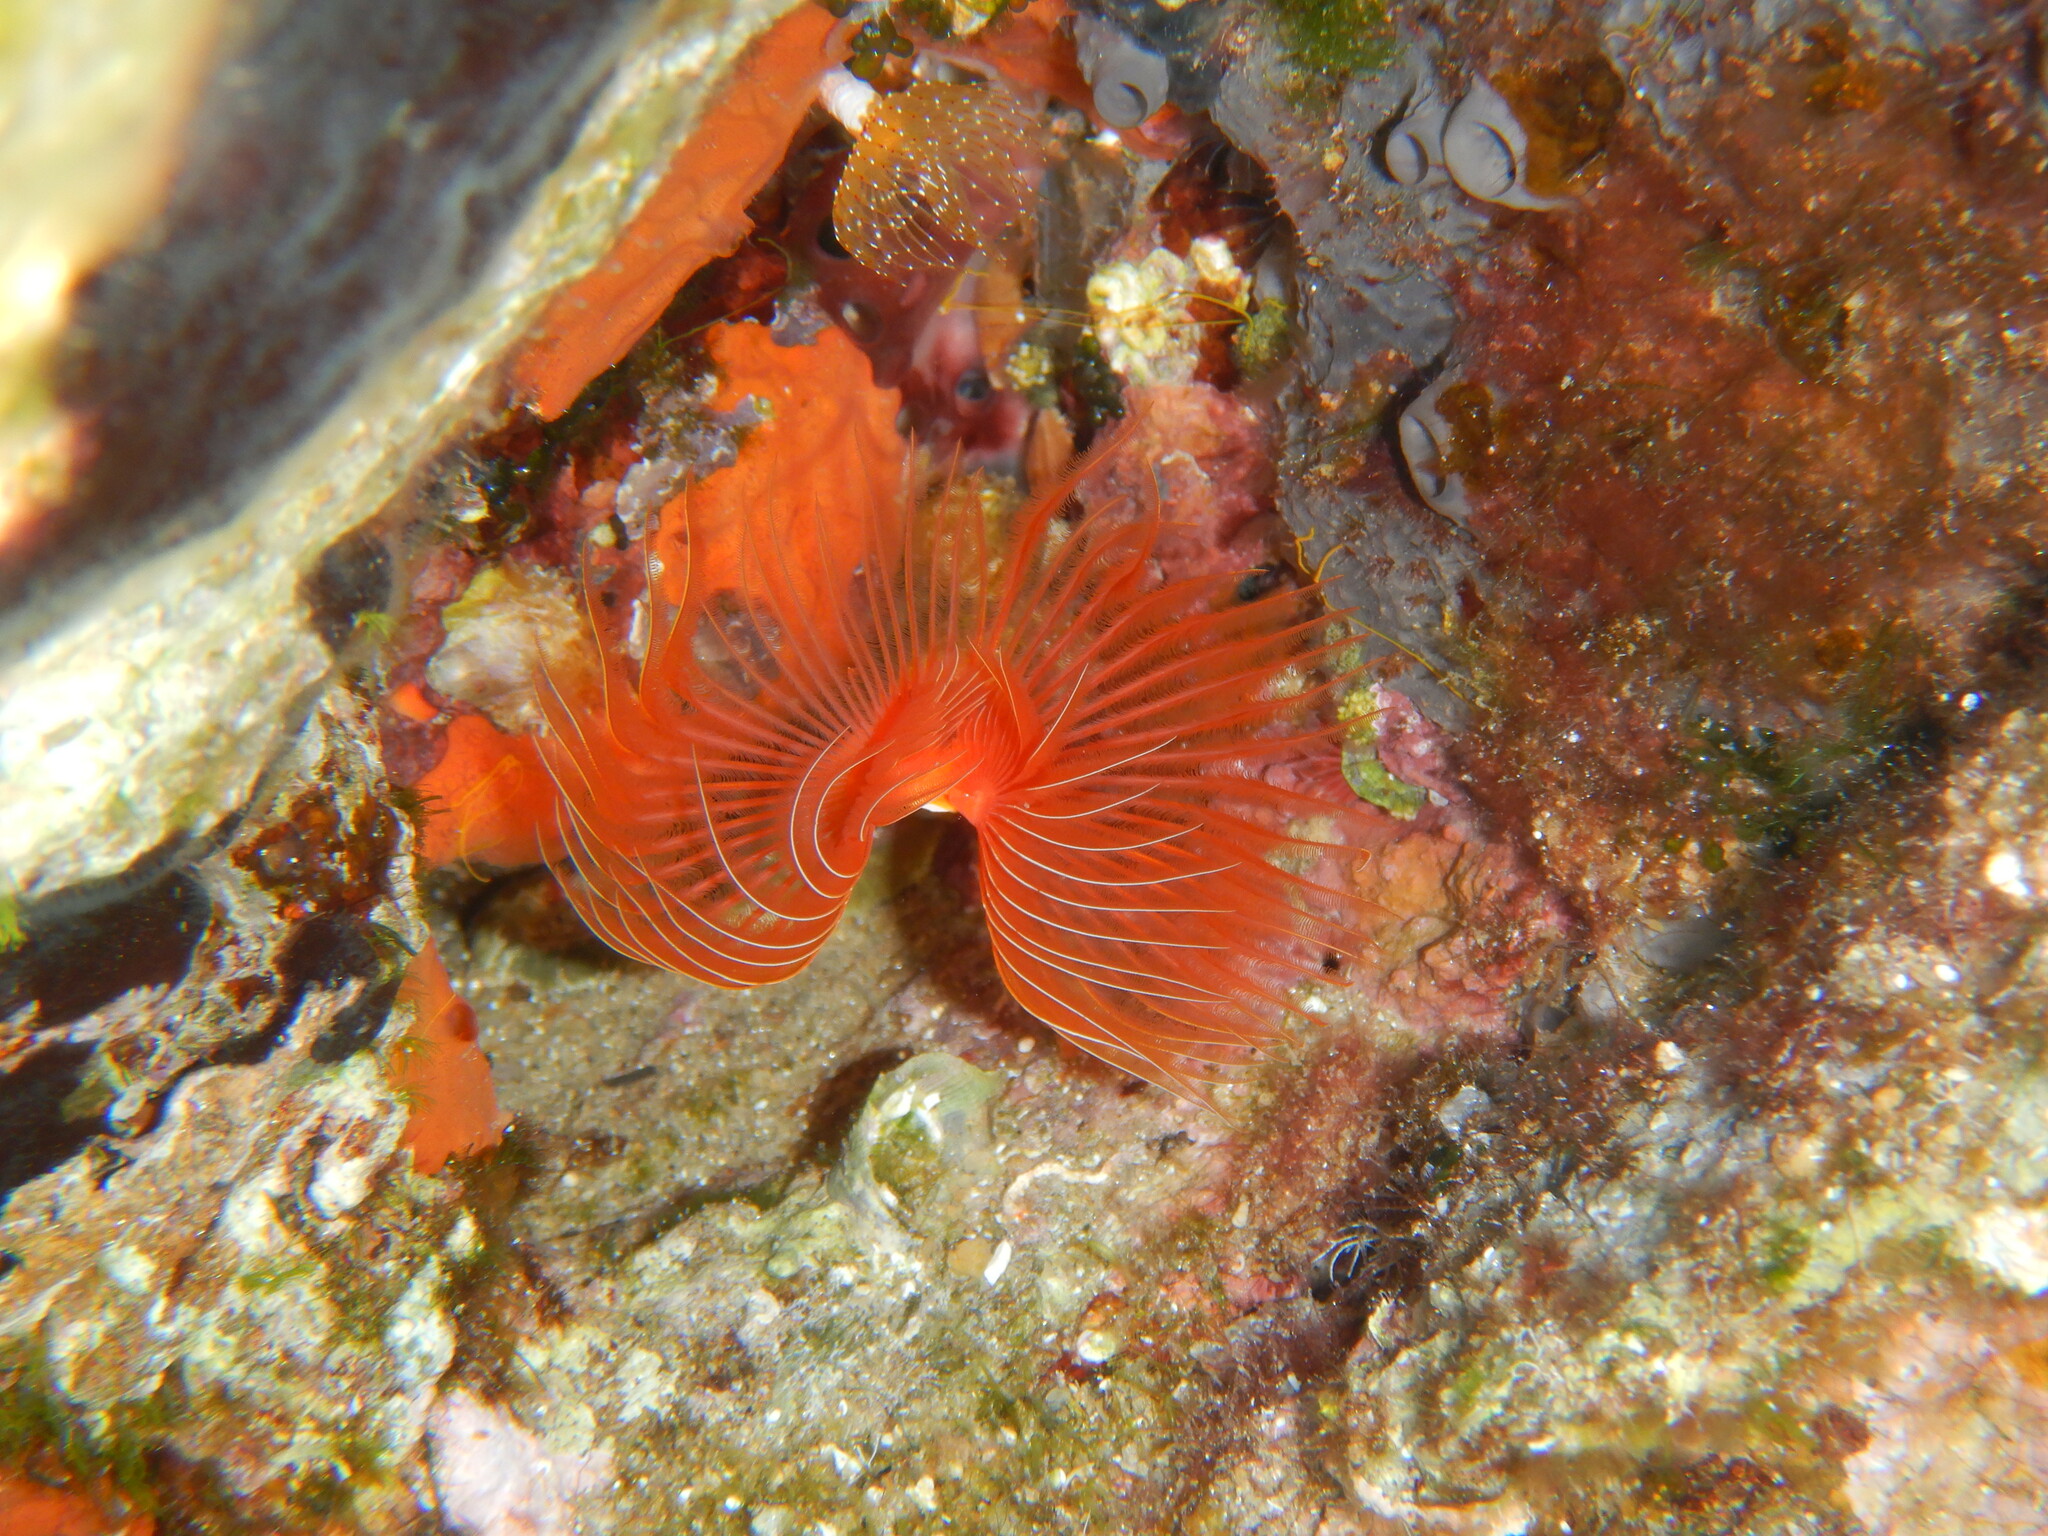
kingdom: Animalia
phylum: Annelida
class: Polychaeta
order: Sabellida
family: Serpulidae
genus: Protula
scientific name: Protula intestinum
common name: Blood-red tubeworm
